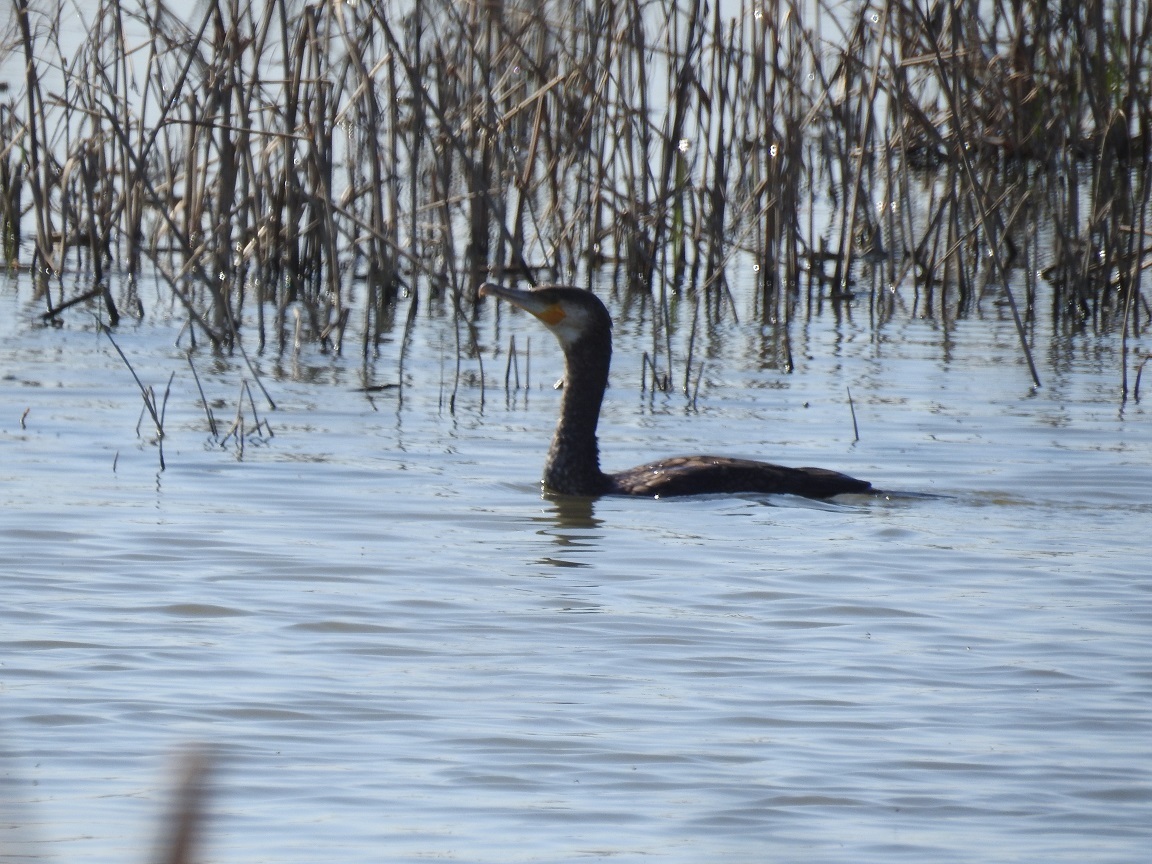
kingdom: Animalia
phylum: Chordata
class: Aves
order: Suliformes
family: Phalacrocoracidae
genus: Phalacrocorax
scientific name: Phalacrocorax carbo
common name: Great cormorant
